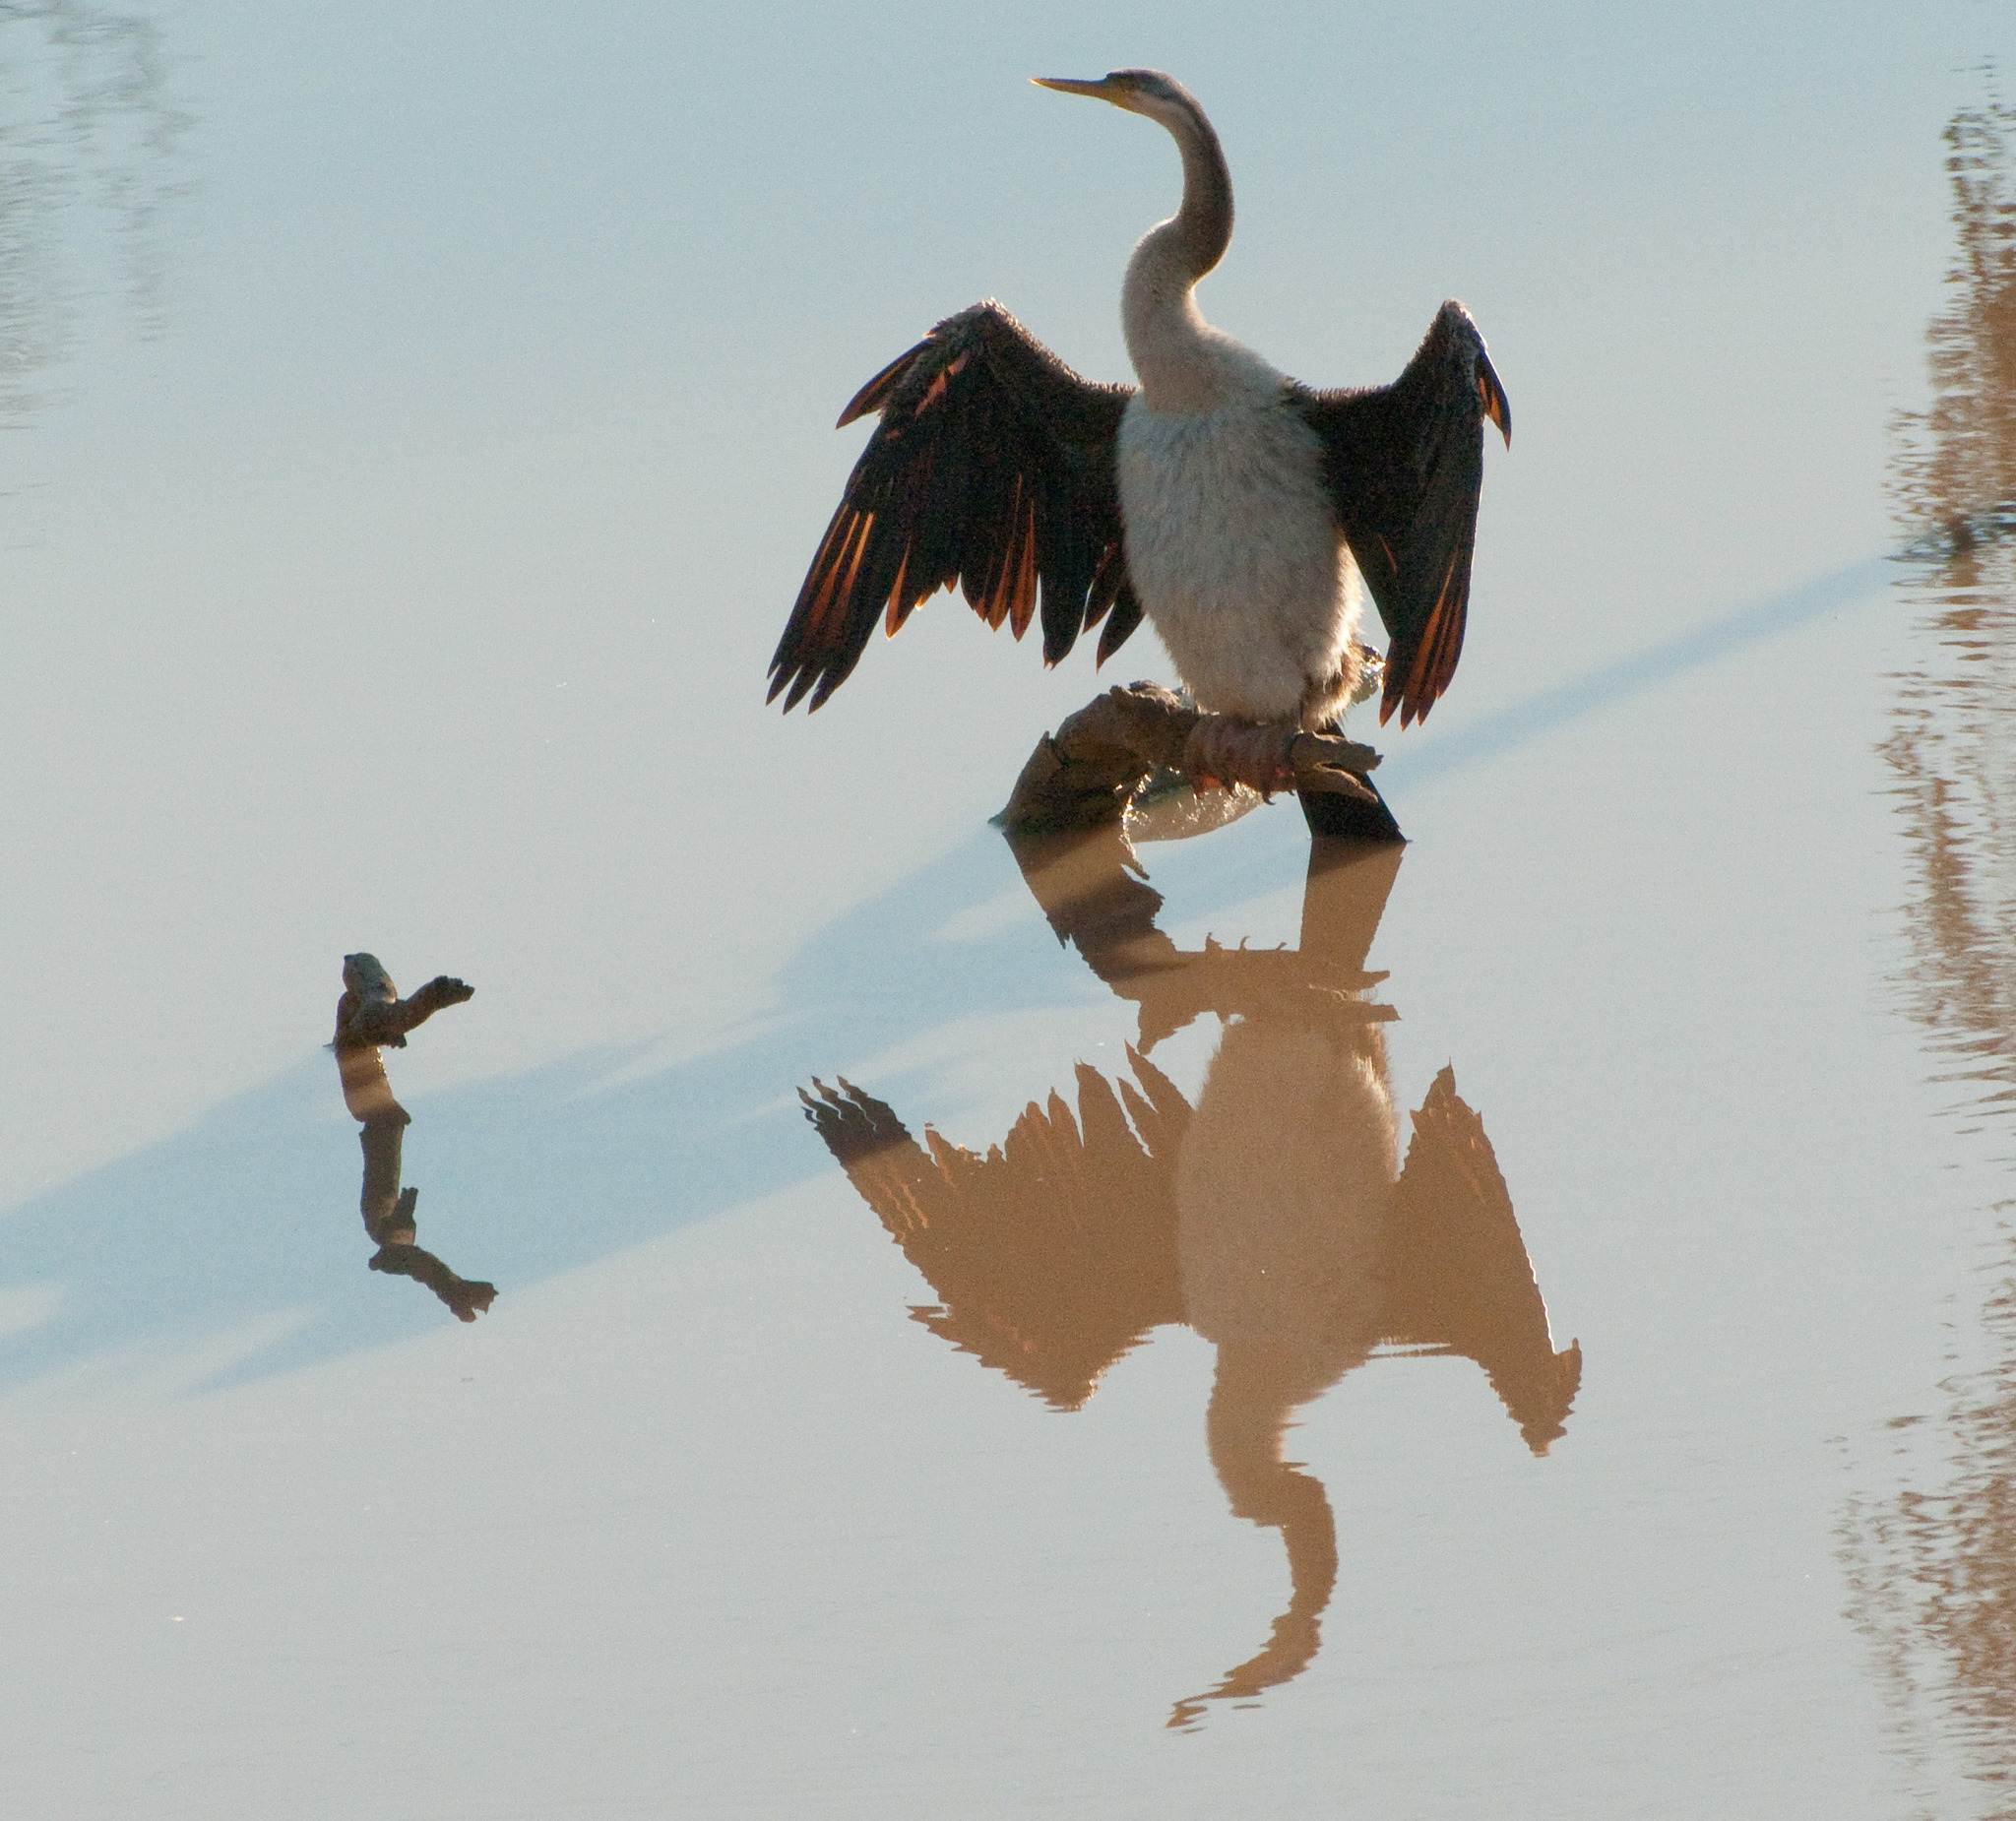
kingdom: Animalia
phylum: Chordata
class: Aves
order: Suliformes
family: Anhingidae
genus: Anhinga
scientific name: Anhinga novaehollandiae
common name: Australasian darter
